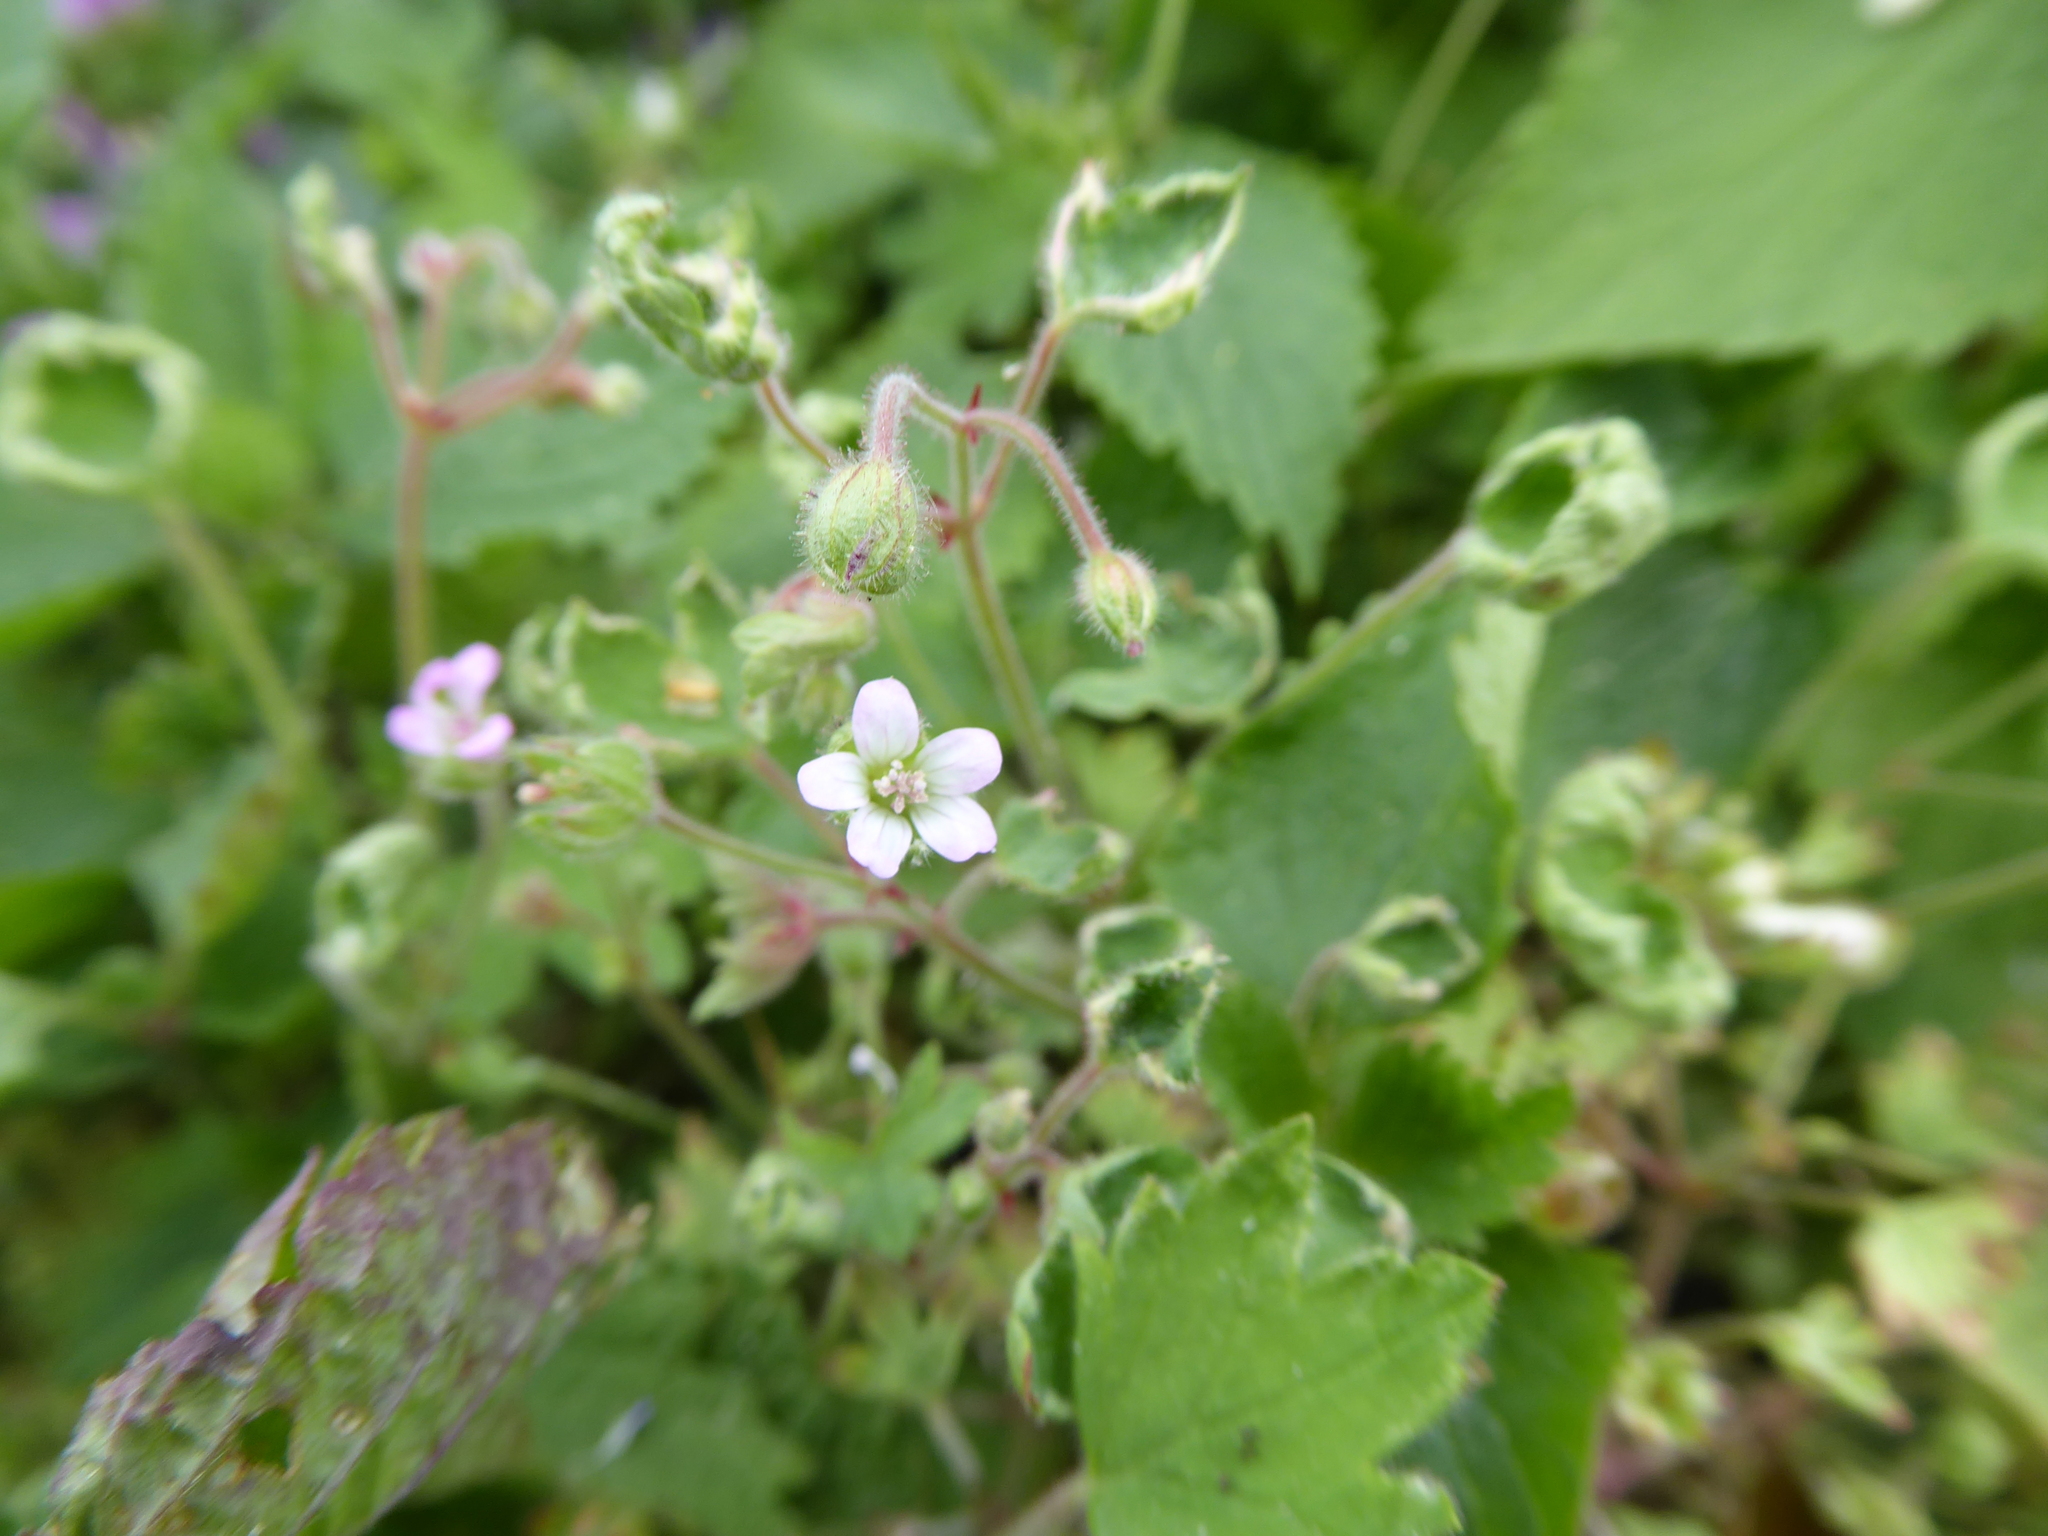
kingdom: Plantae
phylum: Tracheophyta
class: Magnoliopsida
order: Geraniales
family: Geraniaceae
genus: Geranium
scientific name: Geranium rotundifolium
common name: Round-leaved crane's-bill
